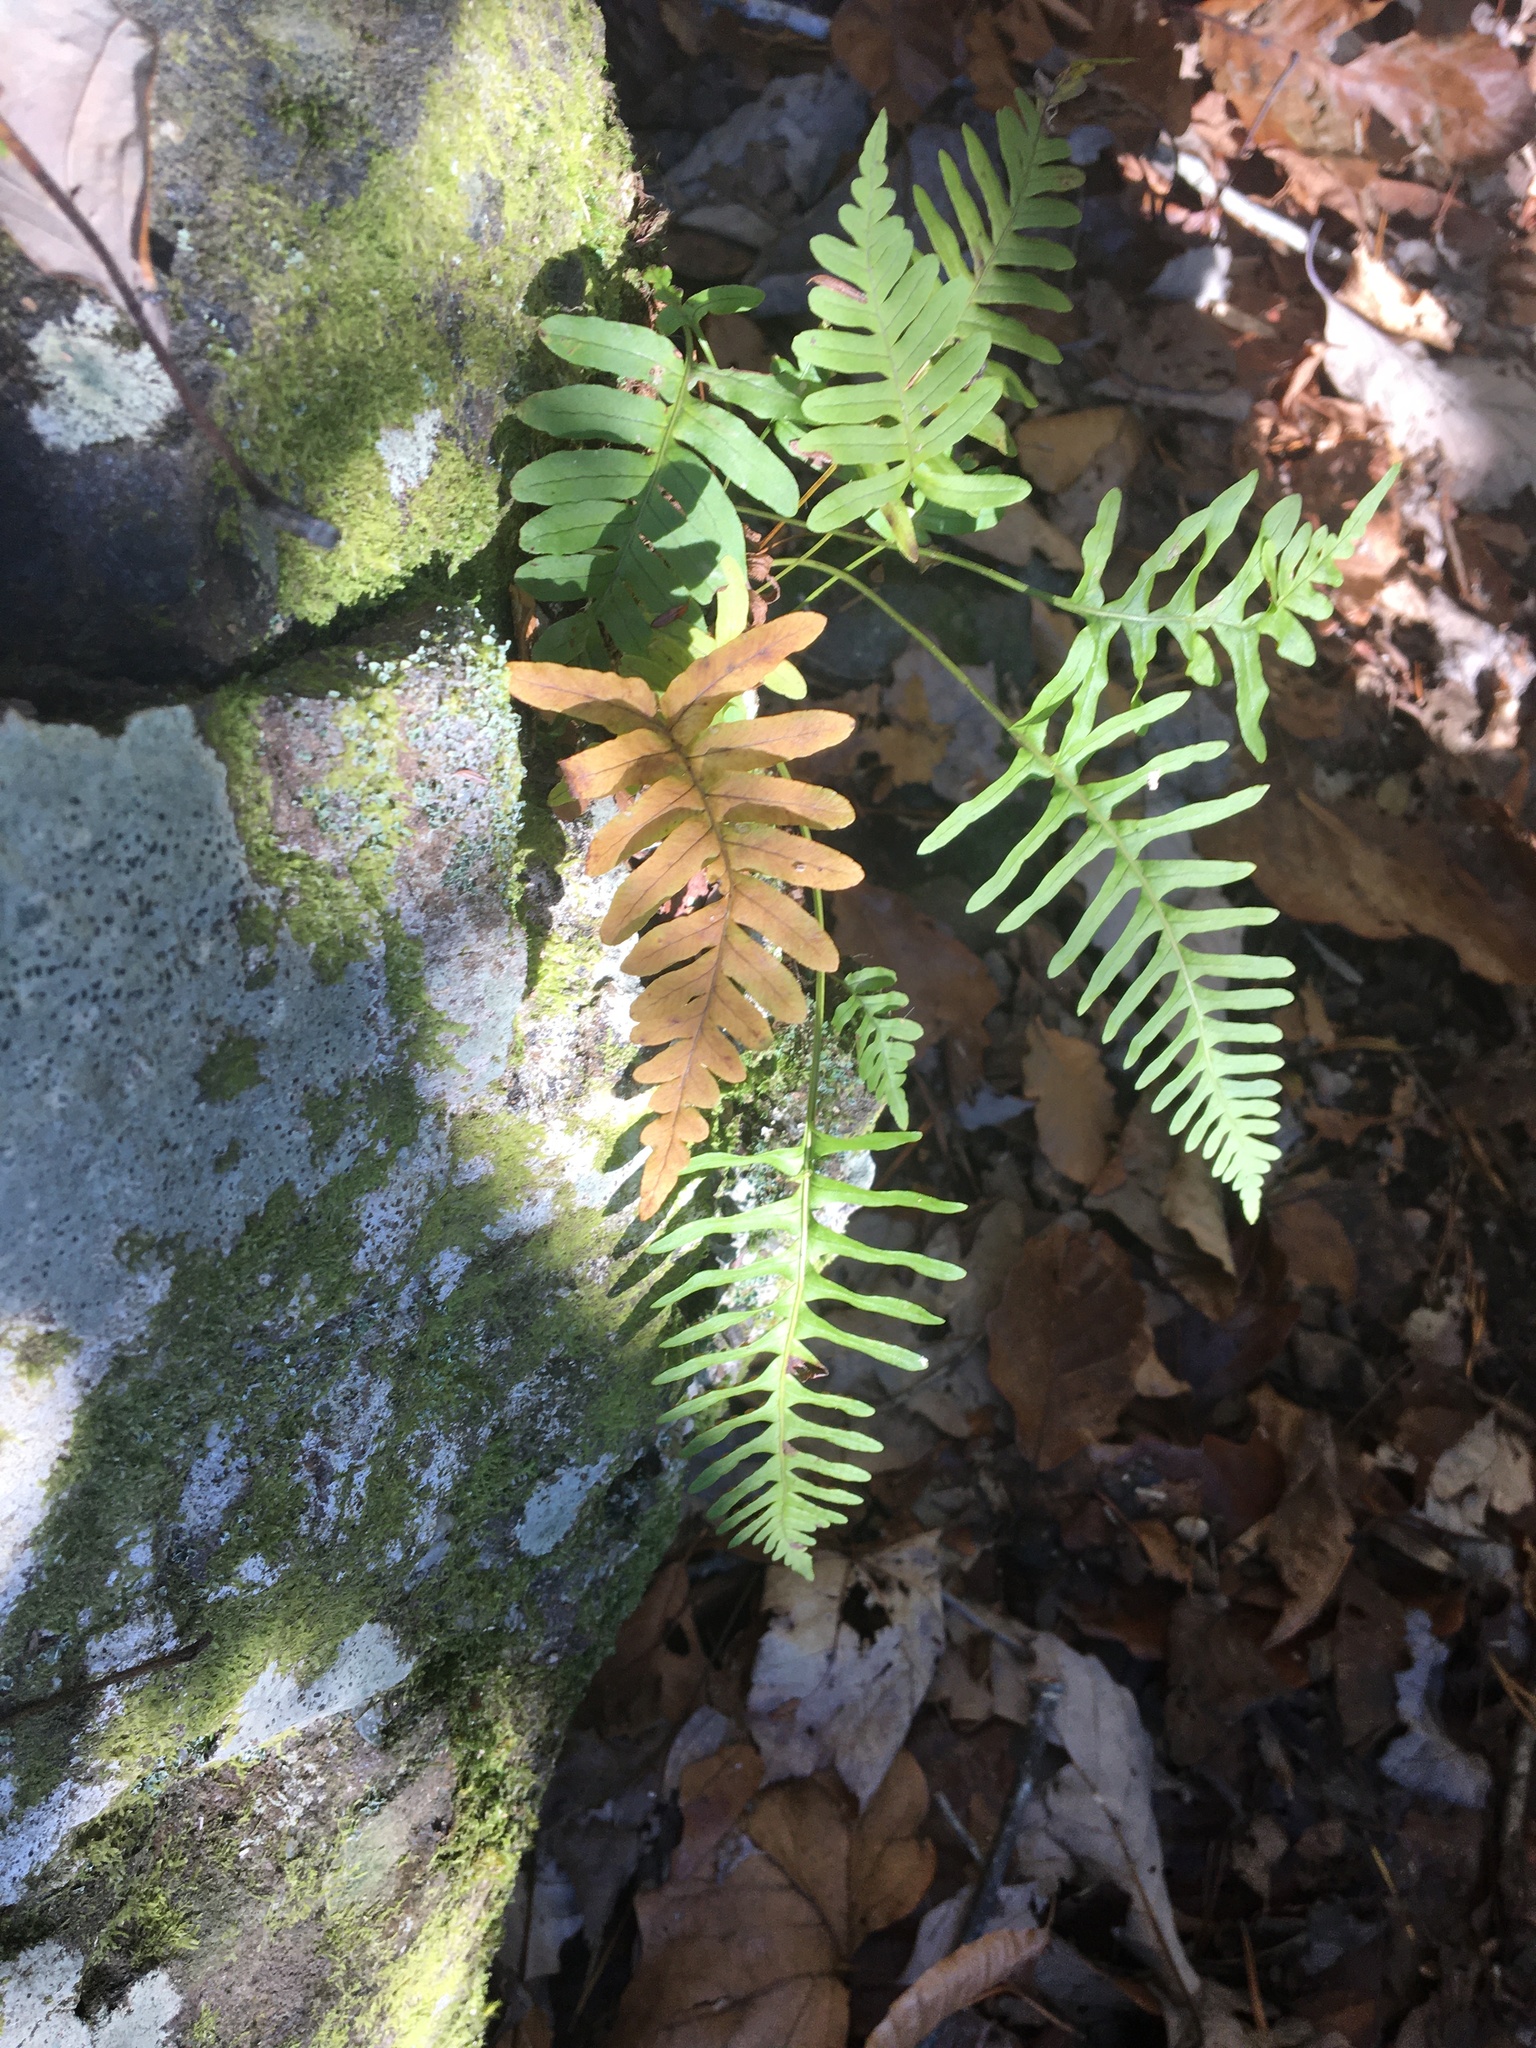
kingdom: Plantae
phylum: Tracheophyta
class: Polypodiopsida
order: Polypodiales
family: Polypodiaceae
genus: Polypodium
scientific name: Polypodium virginianum
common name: American wall fern
